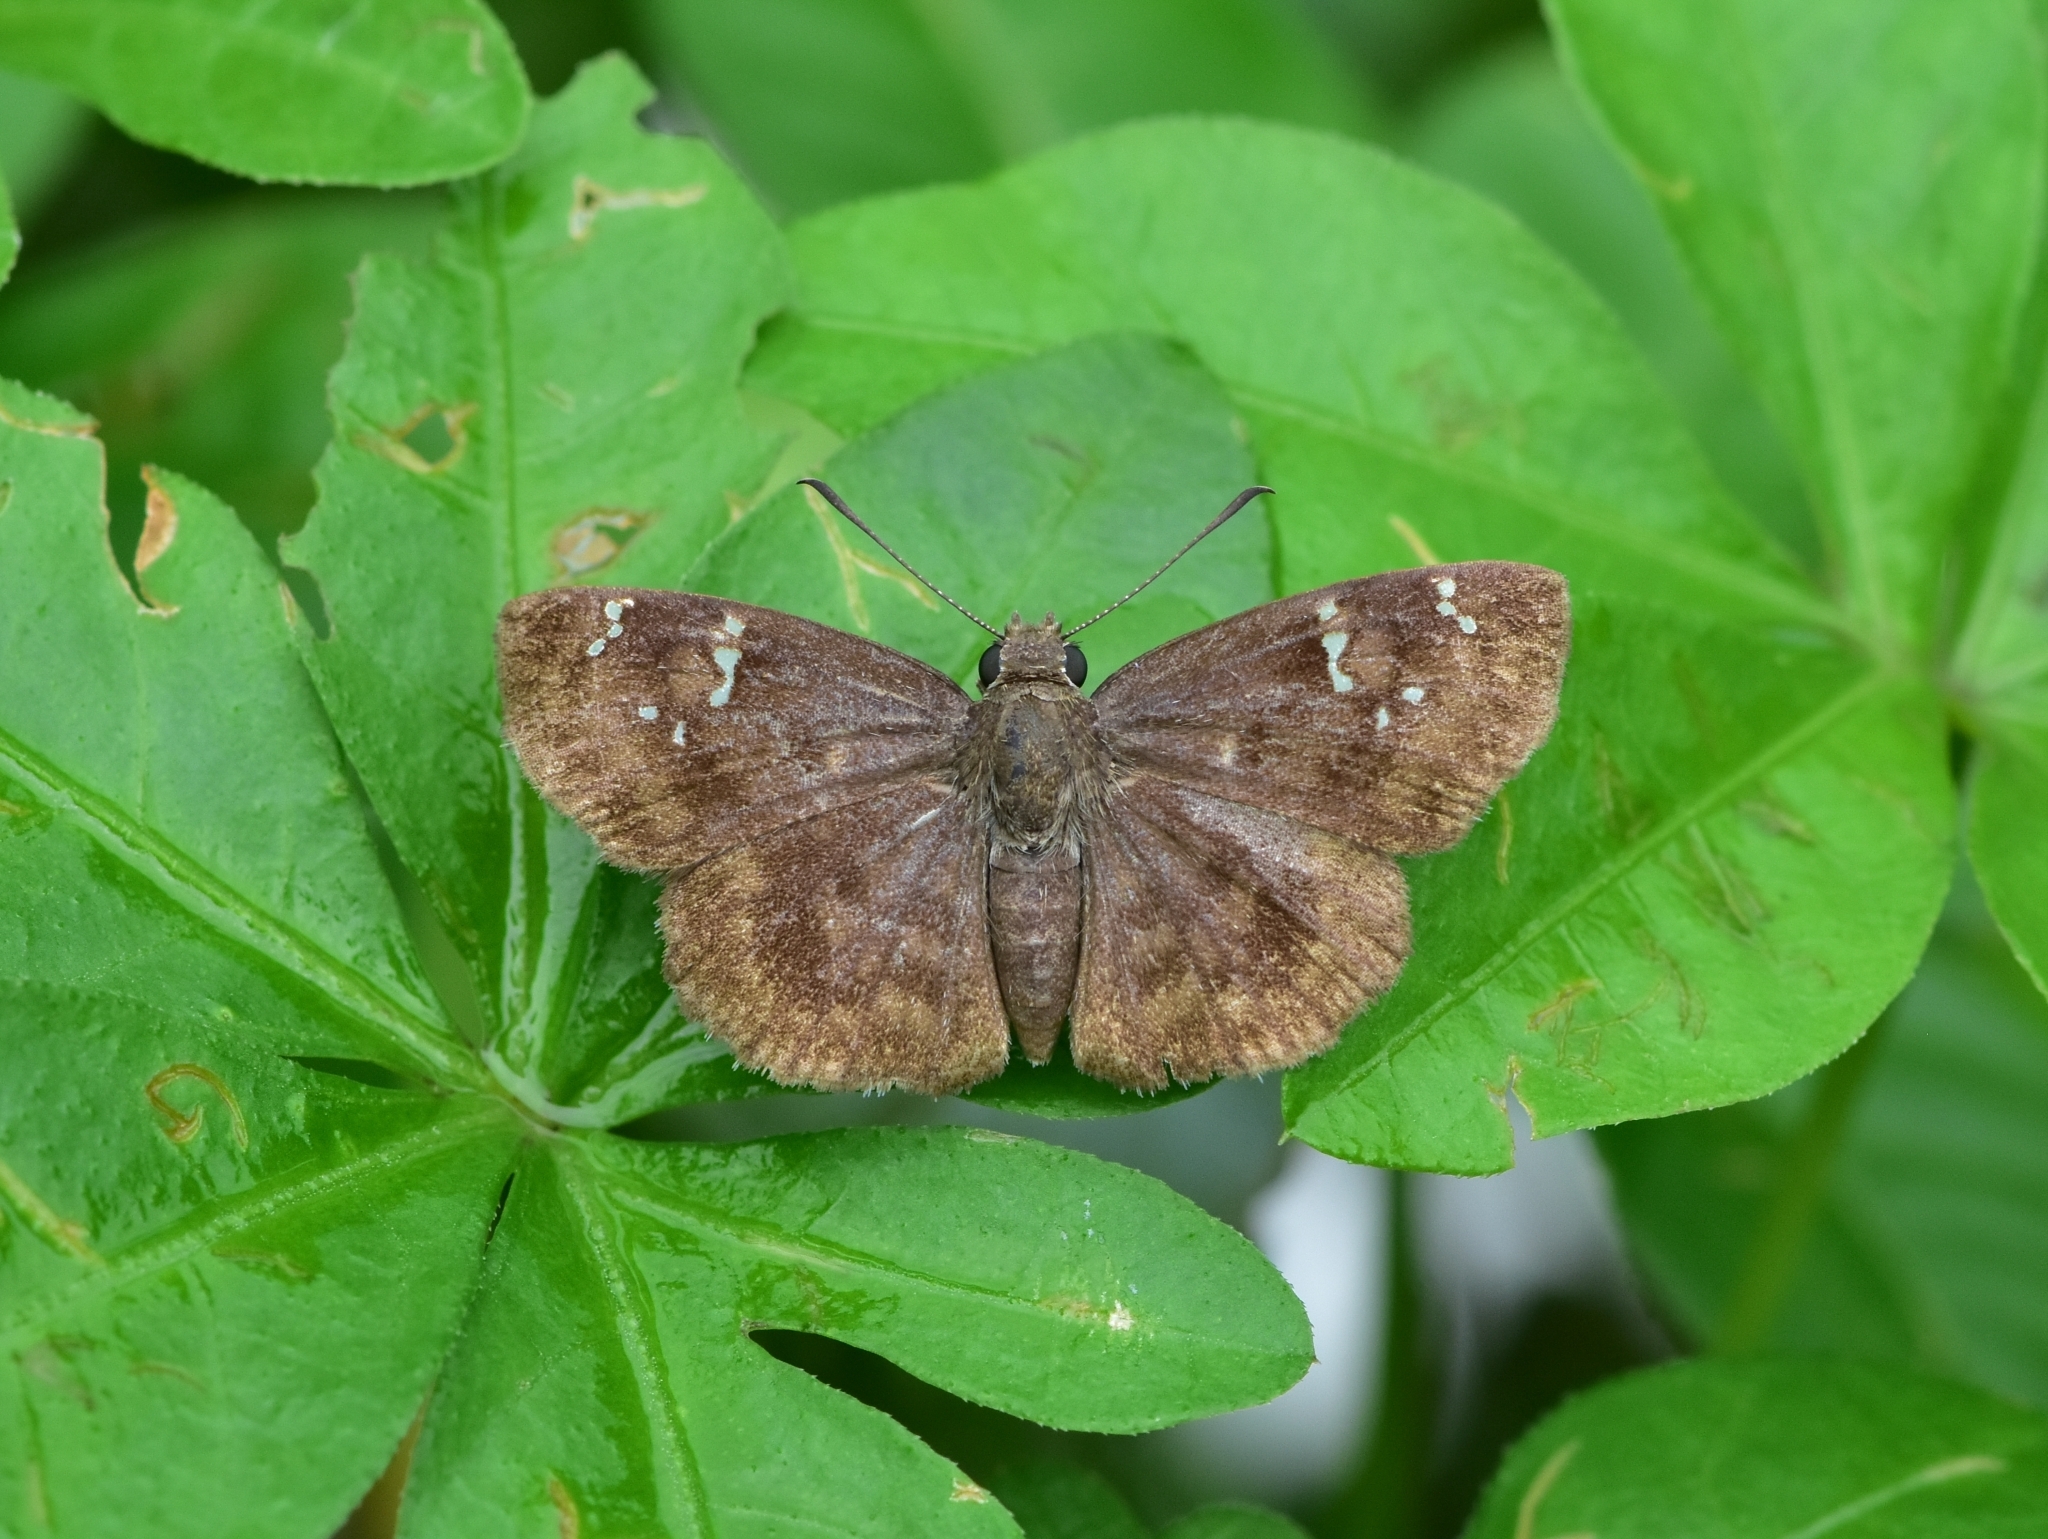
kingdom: Animalia
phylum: Arthropoda
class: Insecta
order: Lepidoptera
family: Hesperiidae
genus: Sarangesa
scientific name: Sarangesa dasahara
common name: Common small flat
